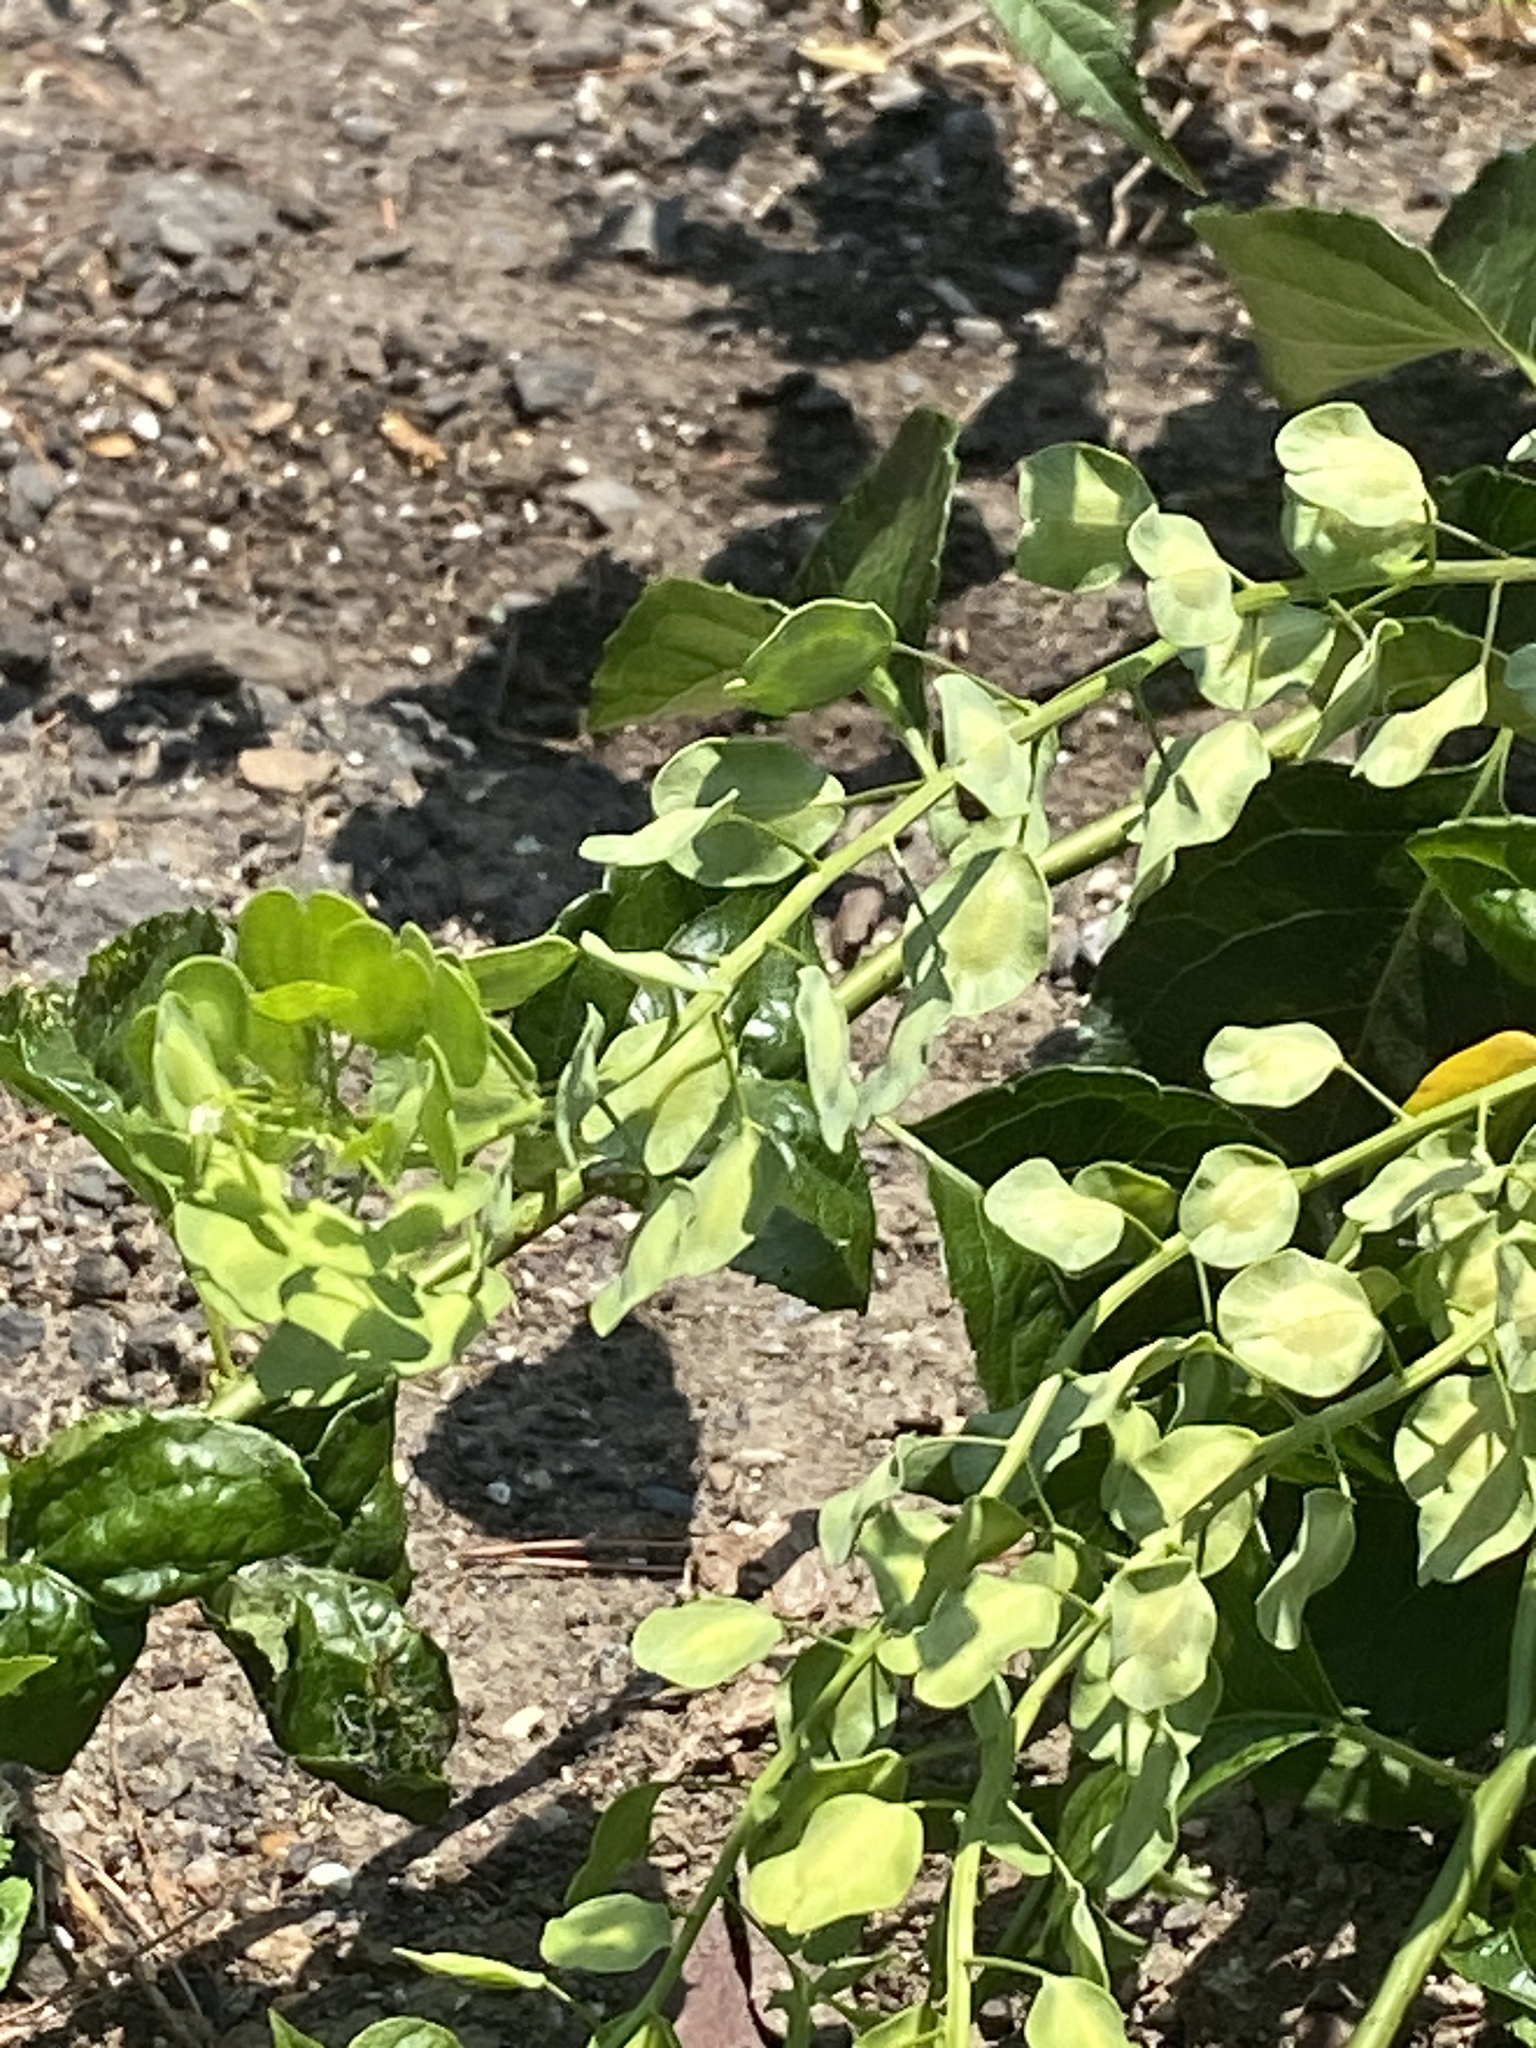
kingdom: Plantae
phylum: Tracheophyta
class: Magnoliopsida
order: Brassicales
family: Brassicaceae
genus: Thlaspi
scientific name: Thlaspi arvense
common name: Field pennycress
